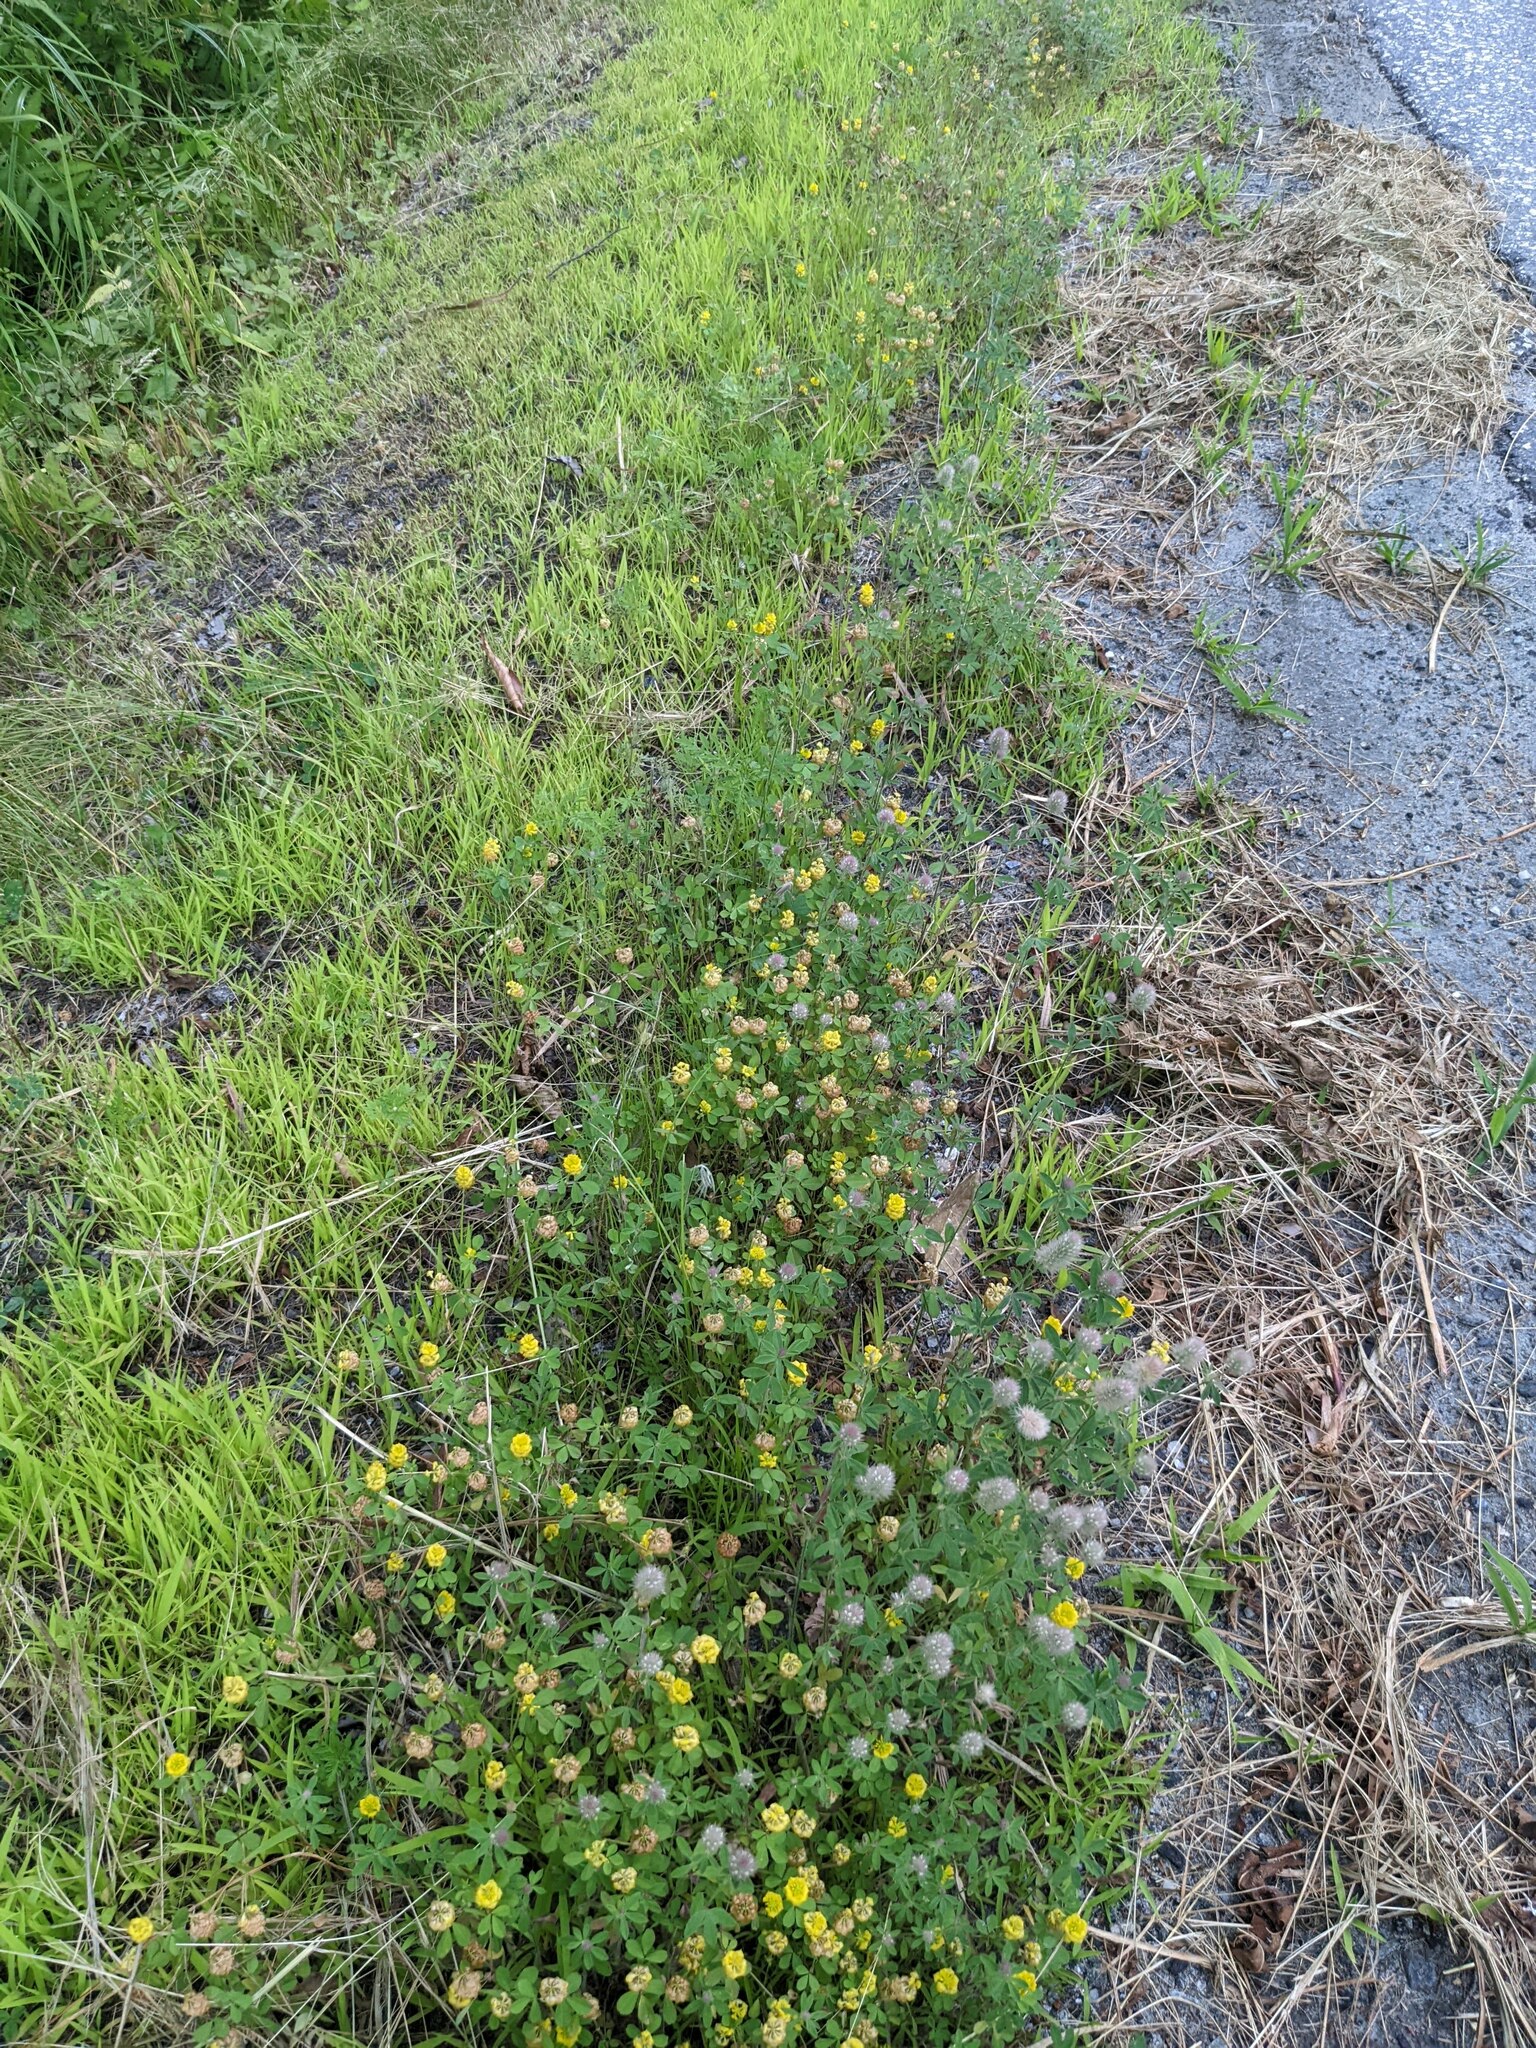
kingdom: Plantae
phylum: Tracheophyta
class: Magnoliopsida
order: Fabales
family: Fabaceae
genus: Trifolium
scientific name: Trifolium arvense
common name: Hare's-foot clover
